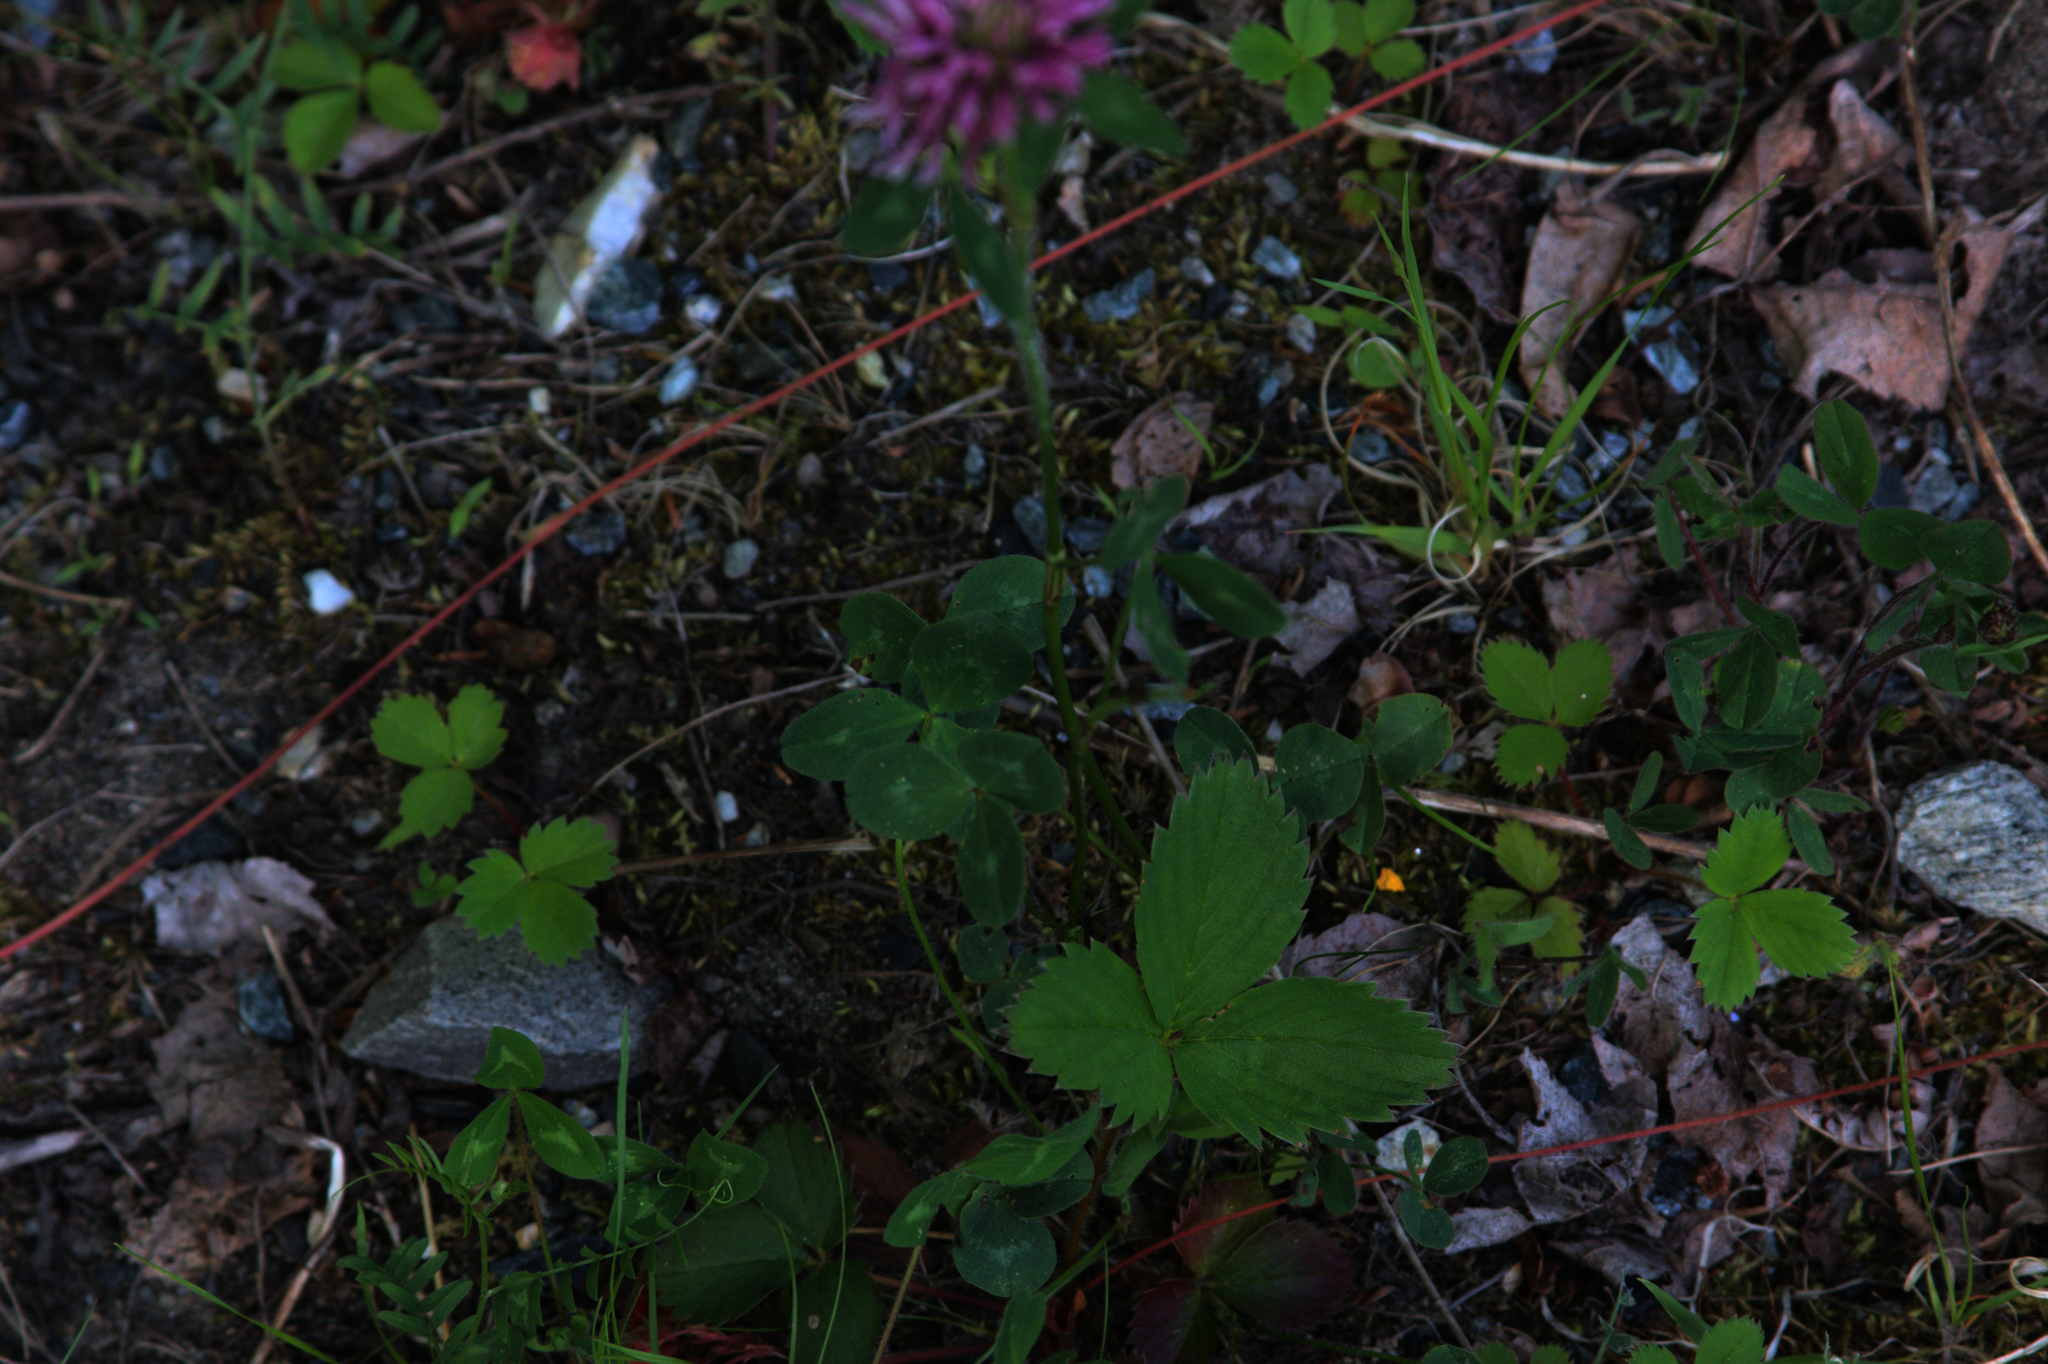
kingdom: Plantae
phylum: Tracheophyta
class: Magnoliopsida
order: Fabales
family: Fabaceae
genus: Trifolium
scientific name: Trifolium pratense
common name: Red clover
